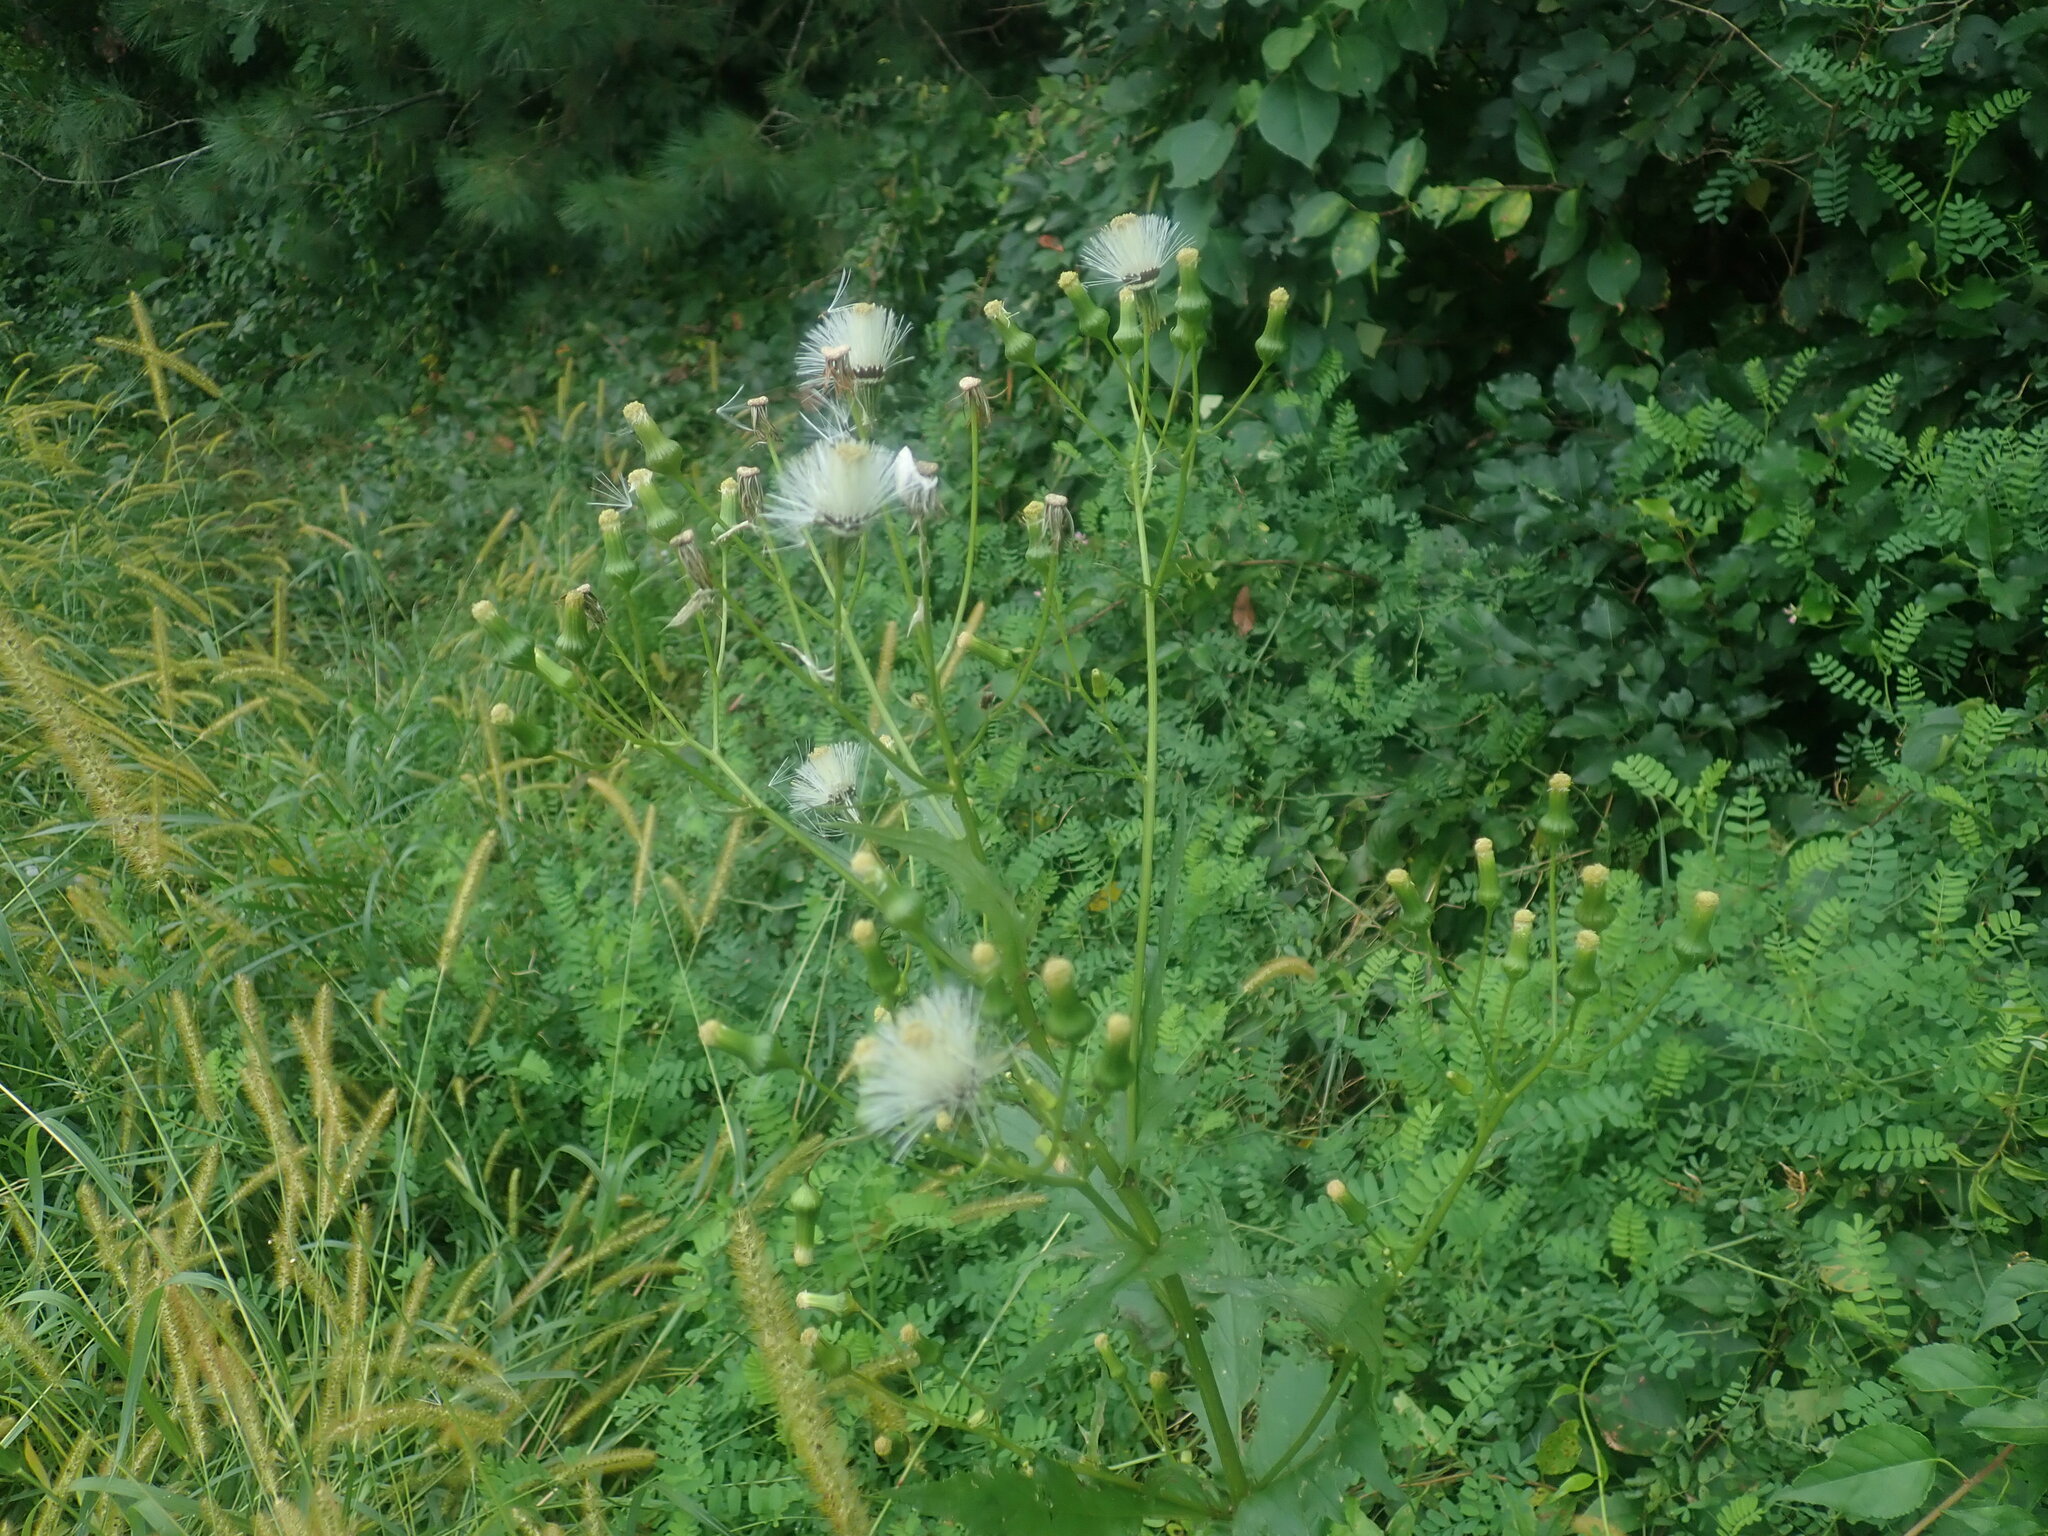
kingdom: Plantae
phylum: Tracheophyta
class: Magnoliopsida
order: Asterales
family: Asteraceae
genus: Erechtites
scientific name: Erechtites hieraciifolius
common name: American burnweed
